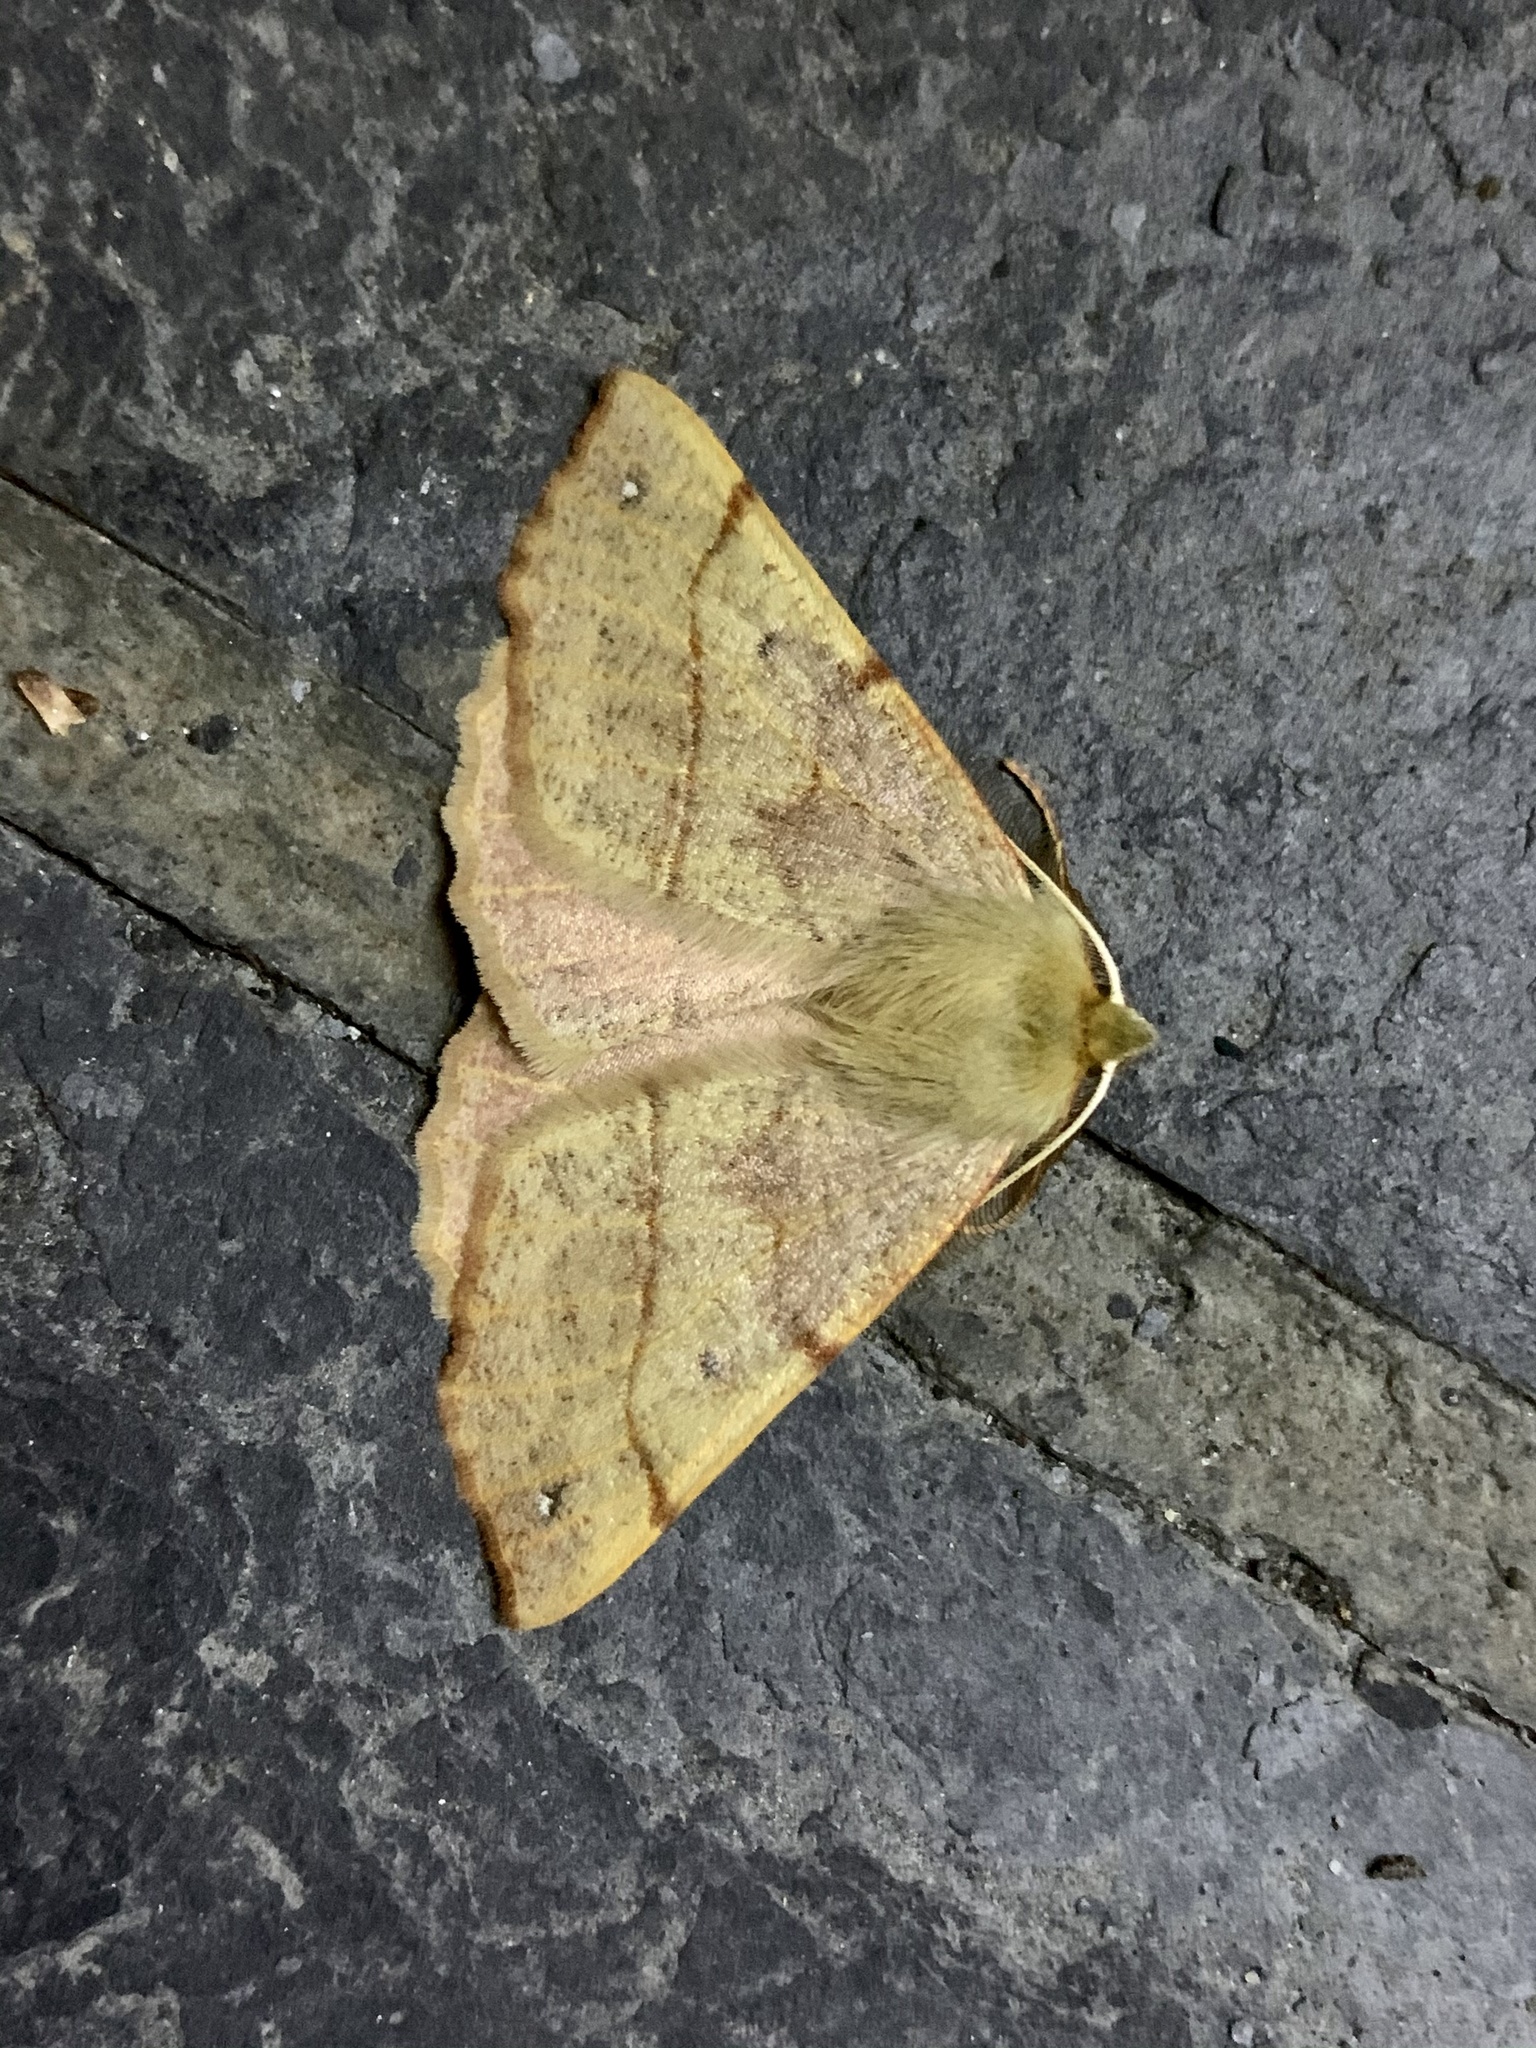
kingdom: Animalia
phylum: Arthropoda
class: Insecta
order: Lepidoptera
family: Geometridae
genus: Colotois
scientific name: Colotois pennaria
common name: Feathered thorn
